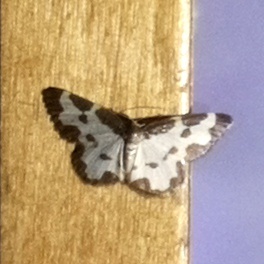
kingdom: Animalia
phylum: Arthropoda
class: Insecta
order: Lepidoptera
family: Geometridae
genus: Lomaspilis
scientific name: Lomaspilis marginata
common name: Clouded border
